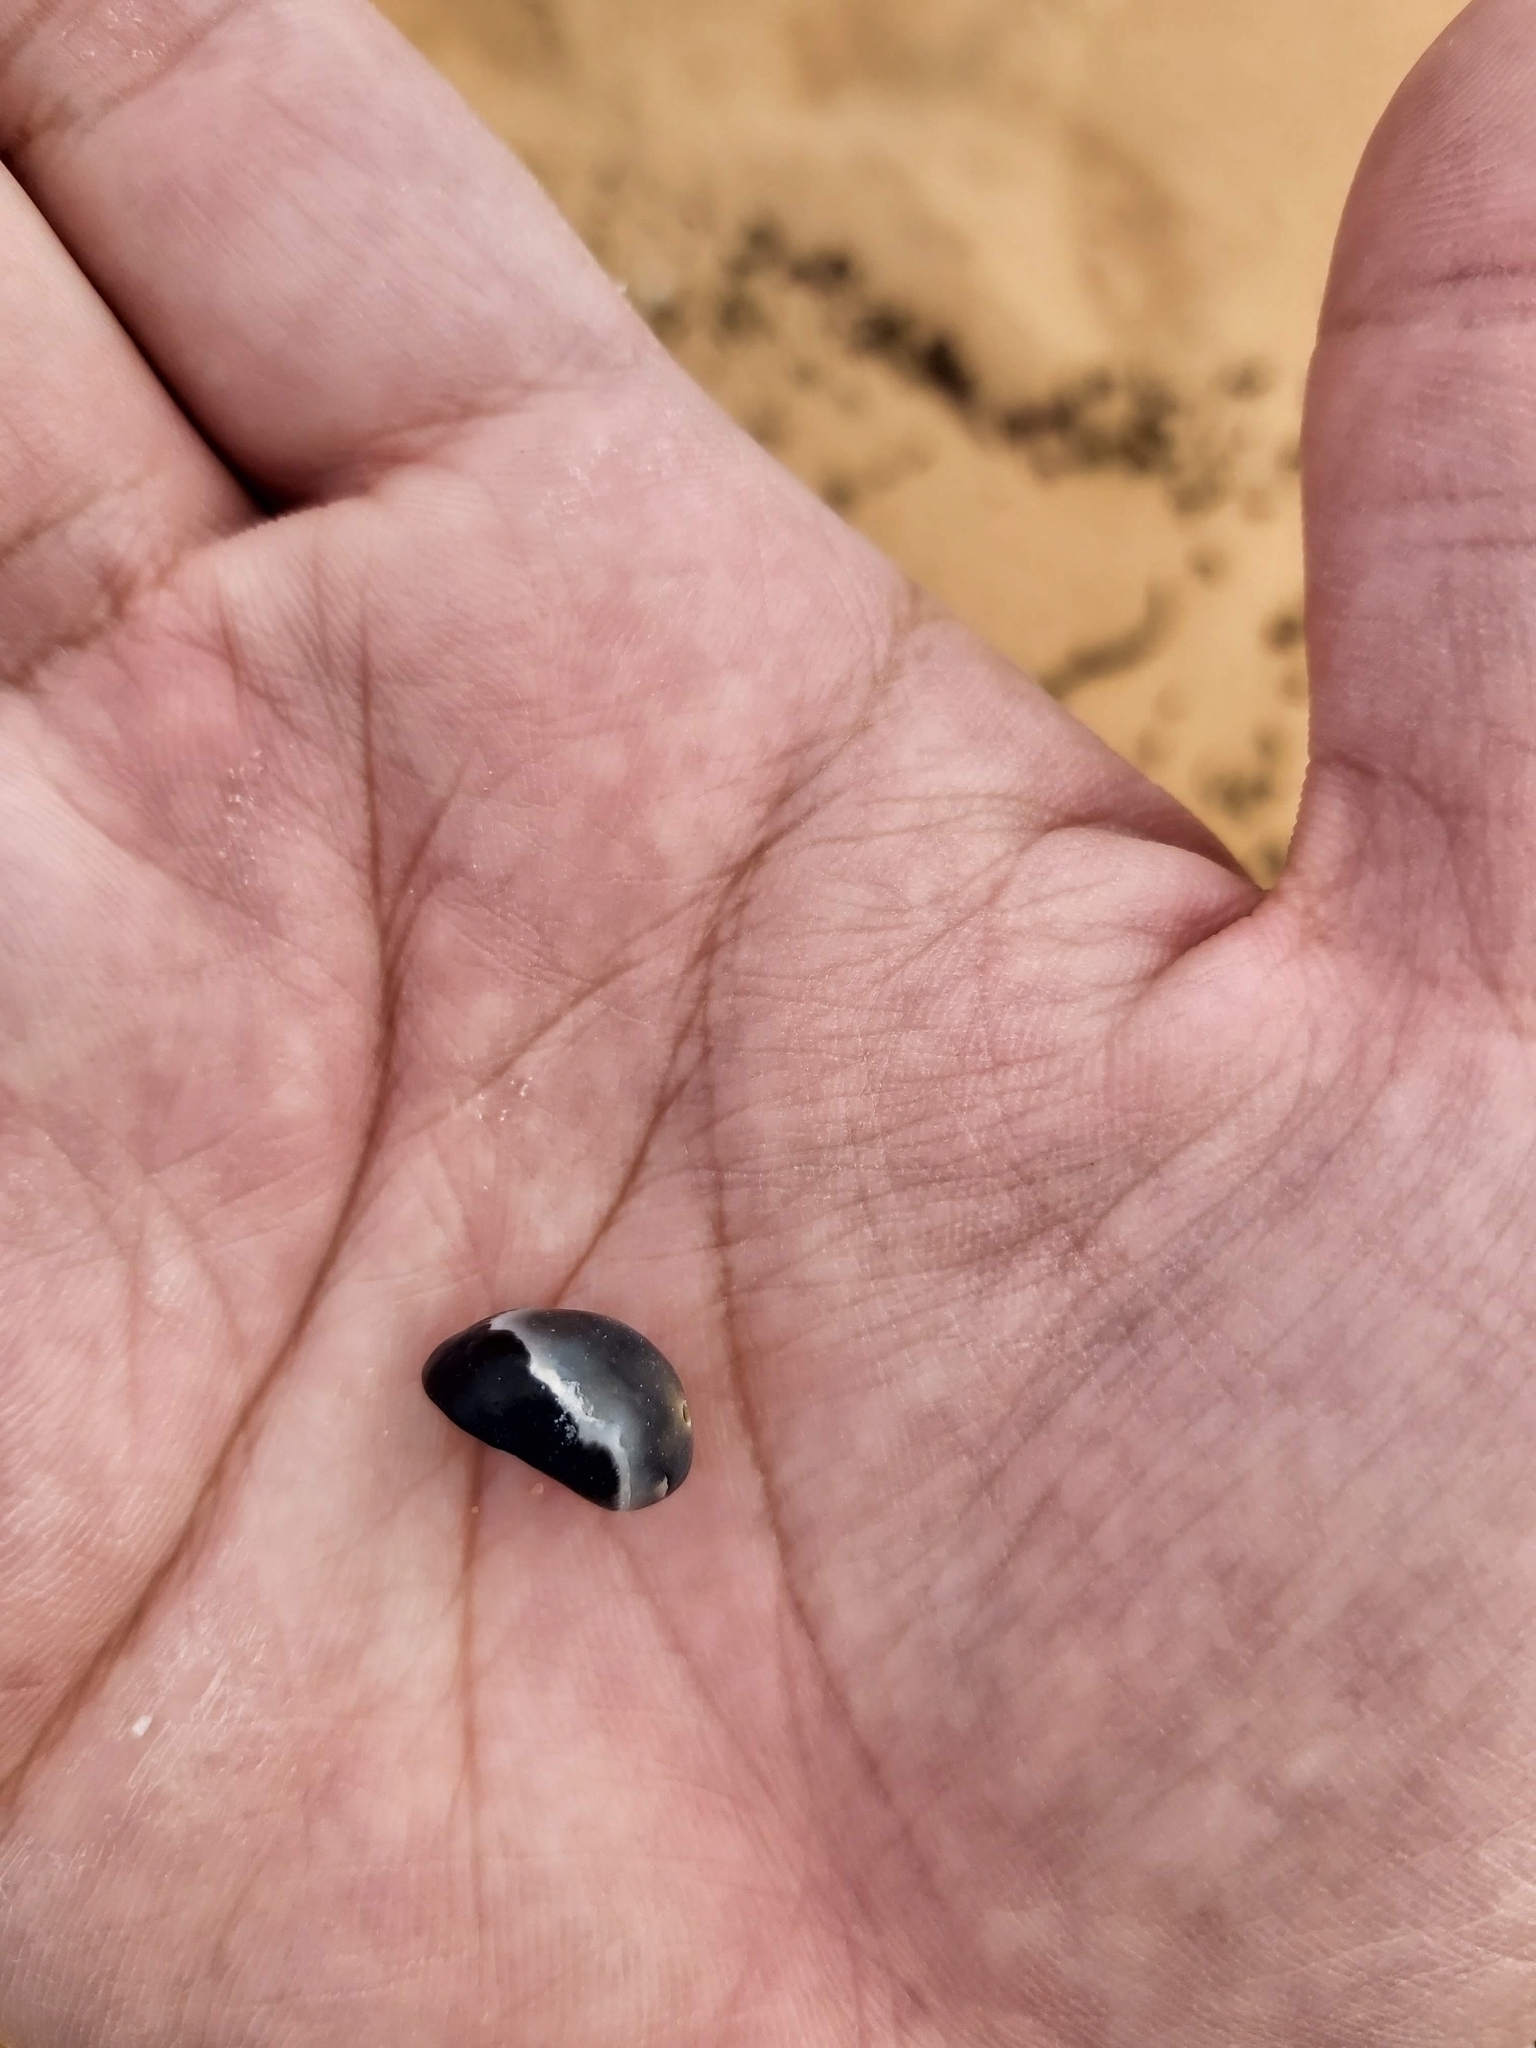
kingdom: Animalia
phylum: Mollusca
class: Gastropoda
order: Cycloneritida
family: Neritidae
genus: Nerita
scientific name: Nerita melanotragus
